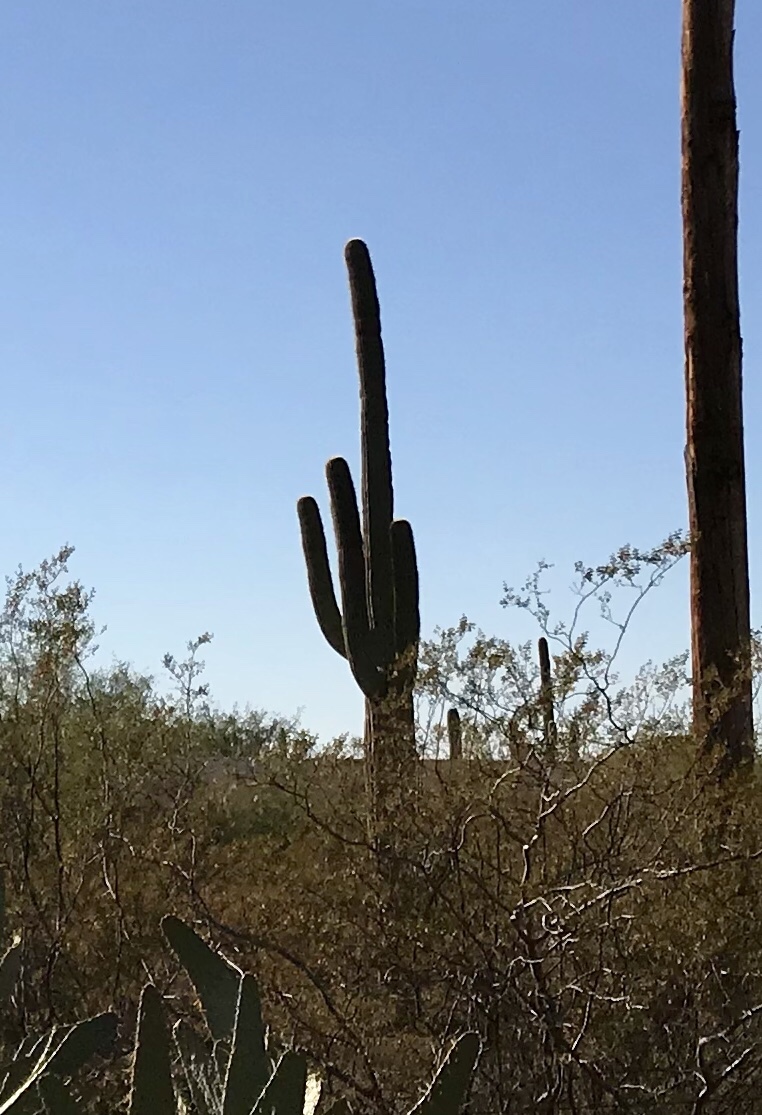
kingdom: Plantae
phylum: Tracheophyta
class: Magnoliopsida
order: Caryophyllales
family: Cactaceae
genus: Carnegiea
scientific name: Carnegiea gigantea
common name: Saguaro
